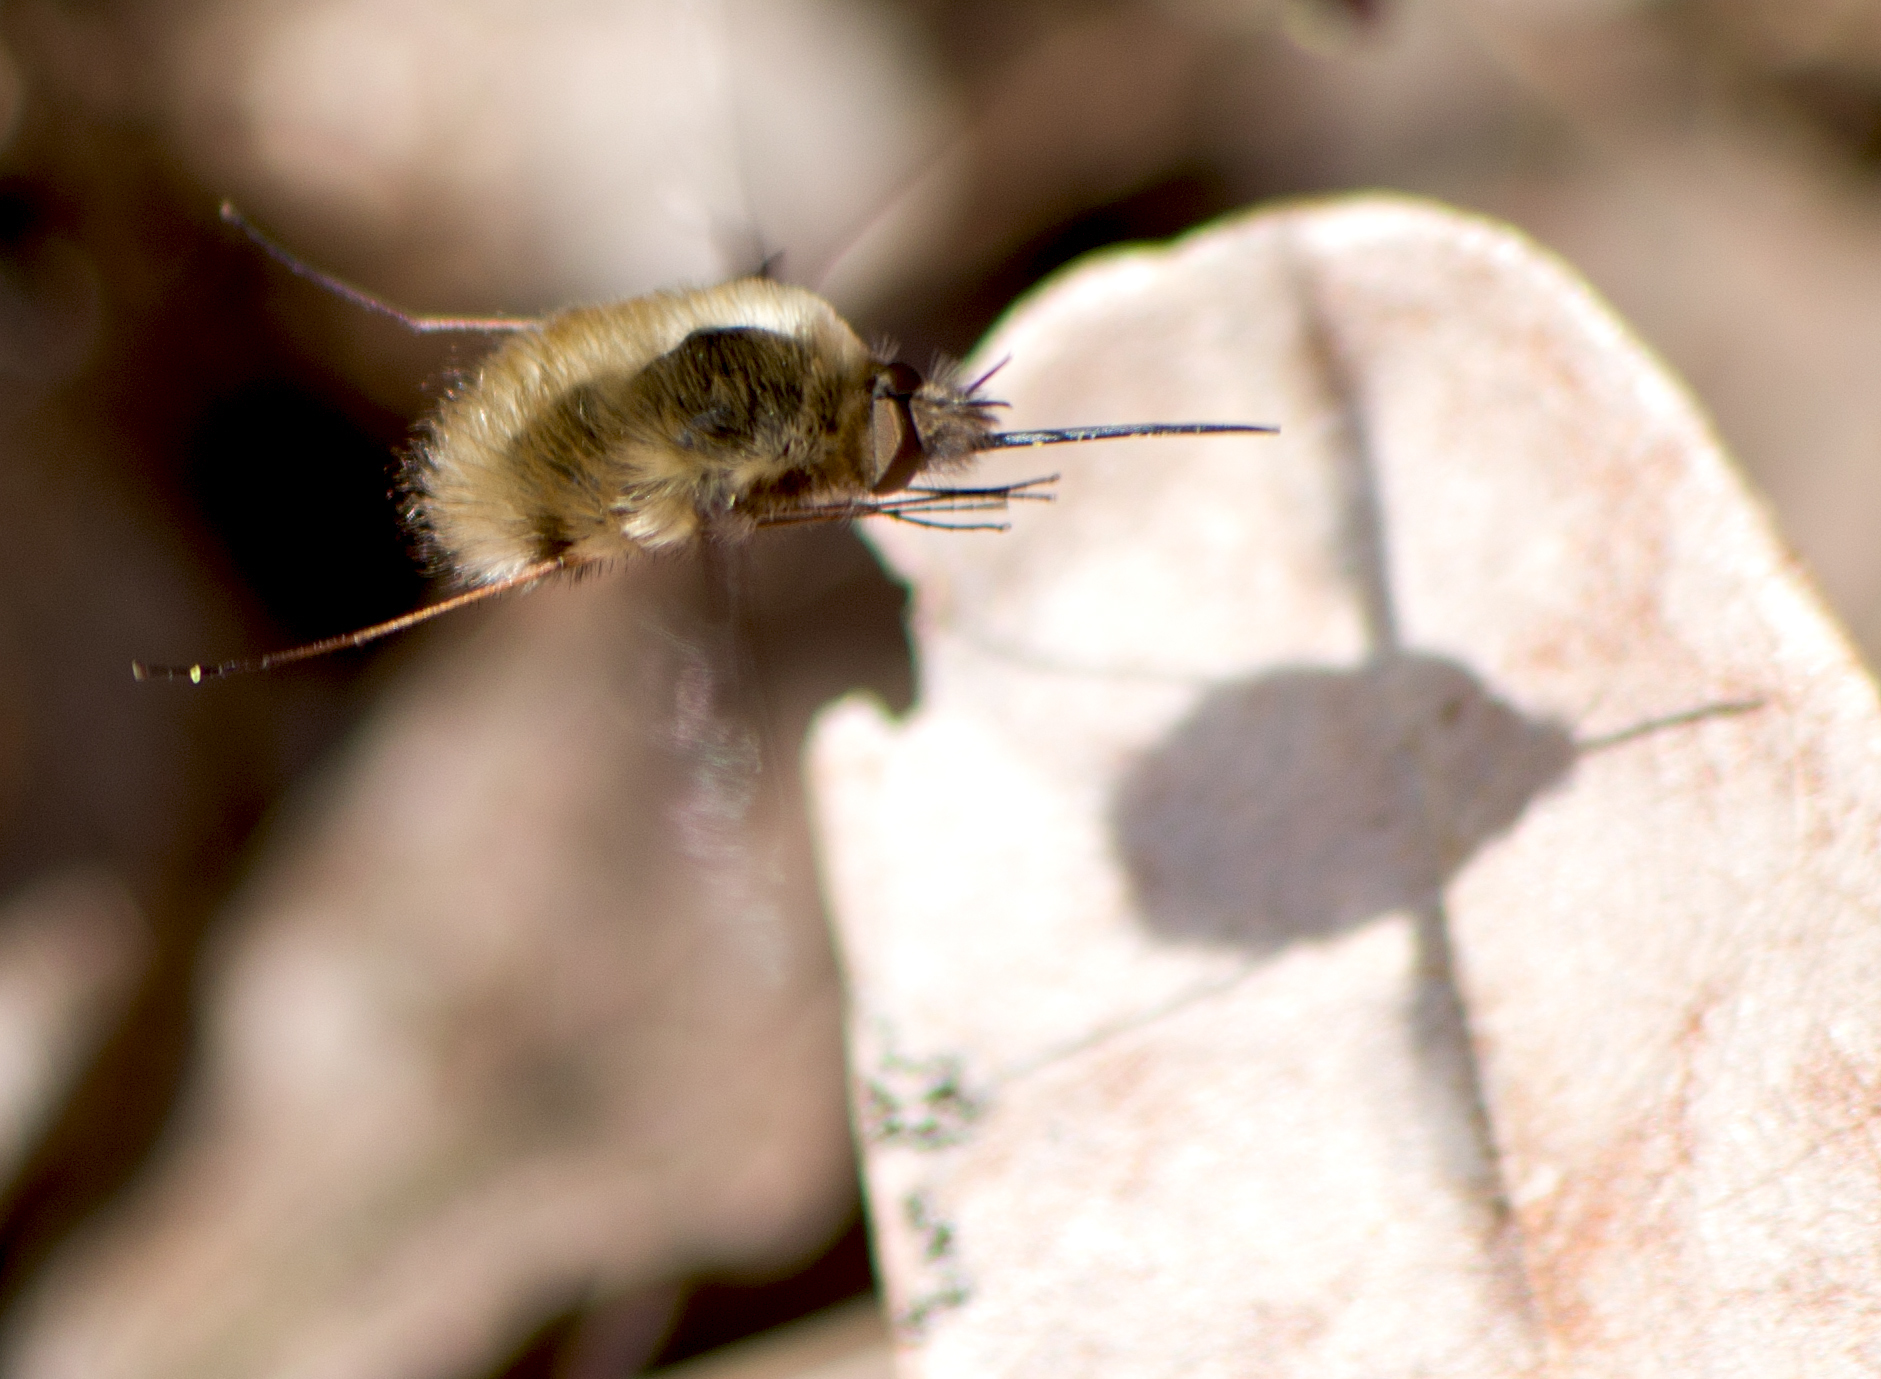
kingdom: Animalia
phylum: Arthropoda
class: Insecta
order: Diptera
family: Bombyliidae
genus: Bombylius
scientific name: Bombylius major
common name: Bee fly
